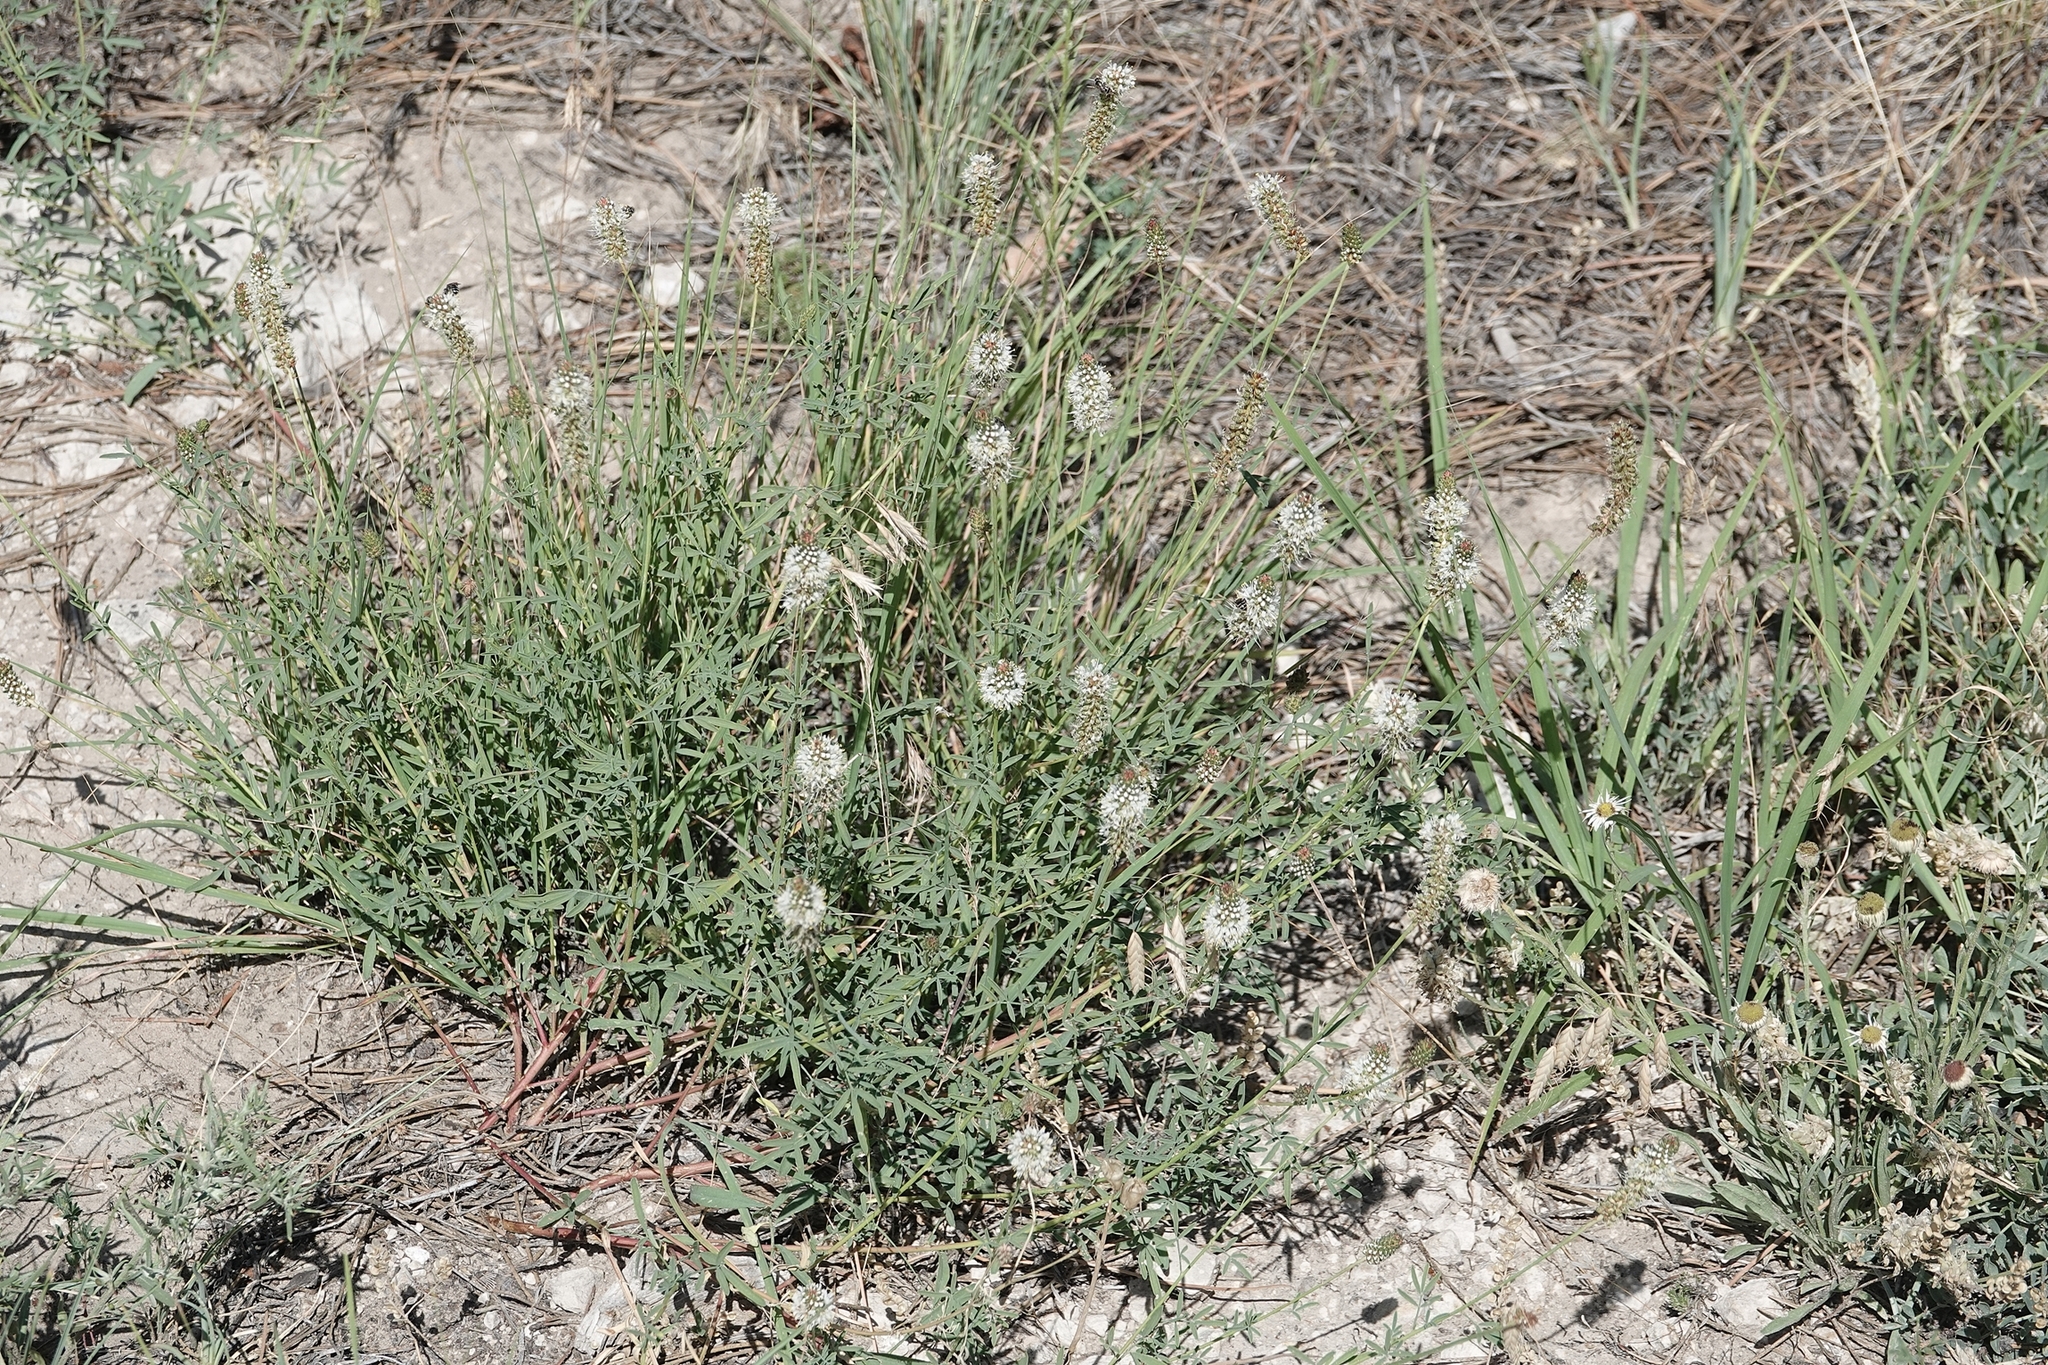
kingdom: Plantae
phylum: Tracheophyta
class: Magnoliopsida
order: Fabales
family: Fabaceae
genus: Dalea
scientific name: Dalea candida
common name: White prairie-clover
